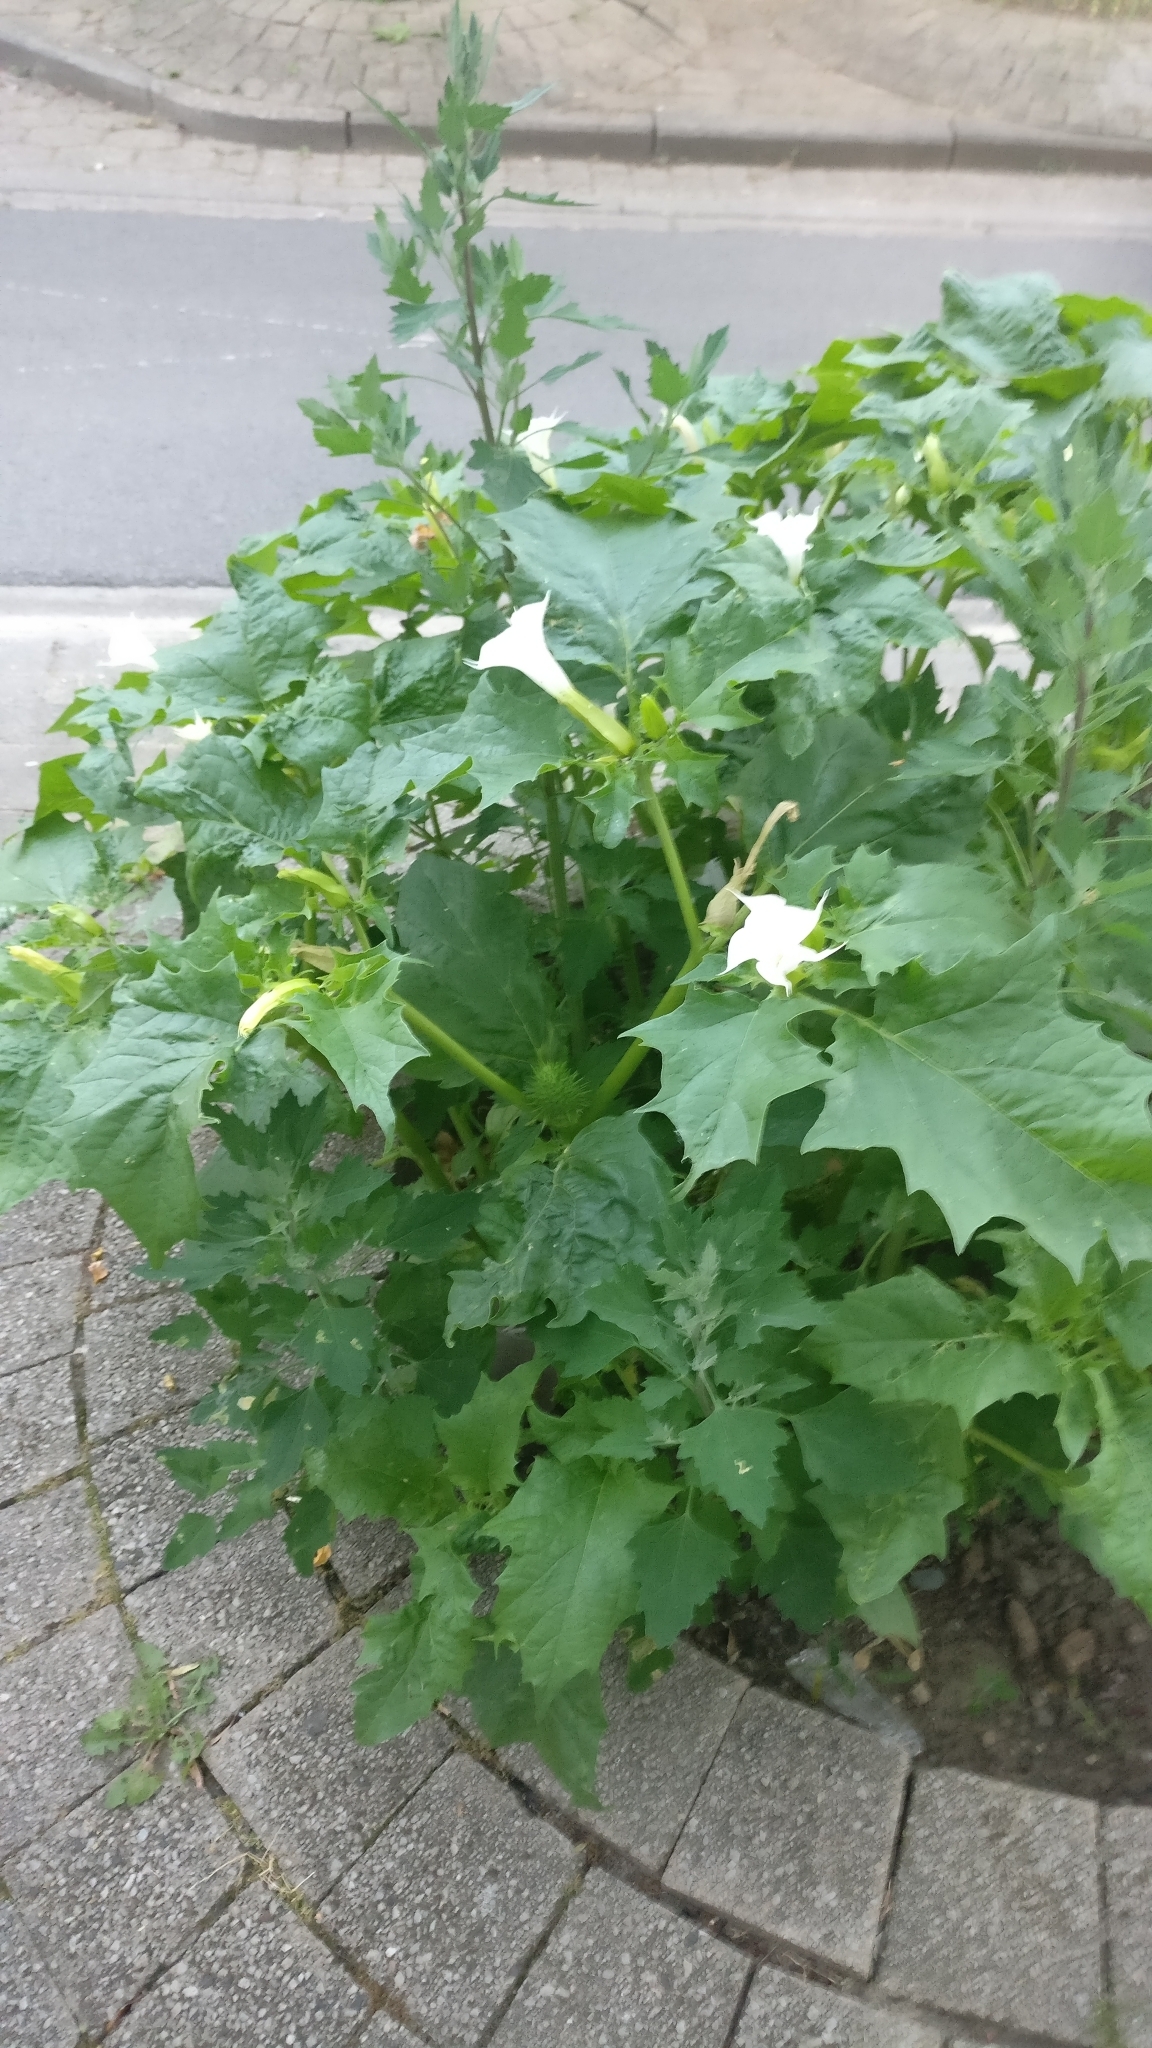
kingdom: Plantae
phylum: Tracheophyta
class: Magnoliopsida
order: Solanales
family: Solanaceae
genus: Datura
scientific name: Datura stramonium
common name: Thorn-apple
